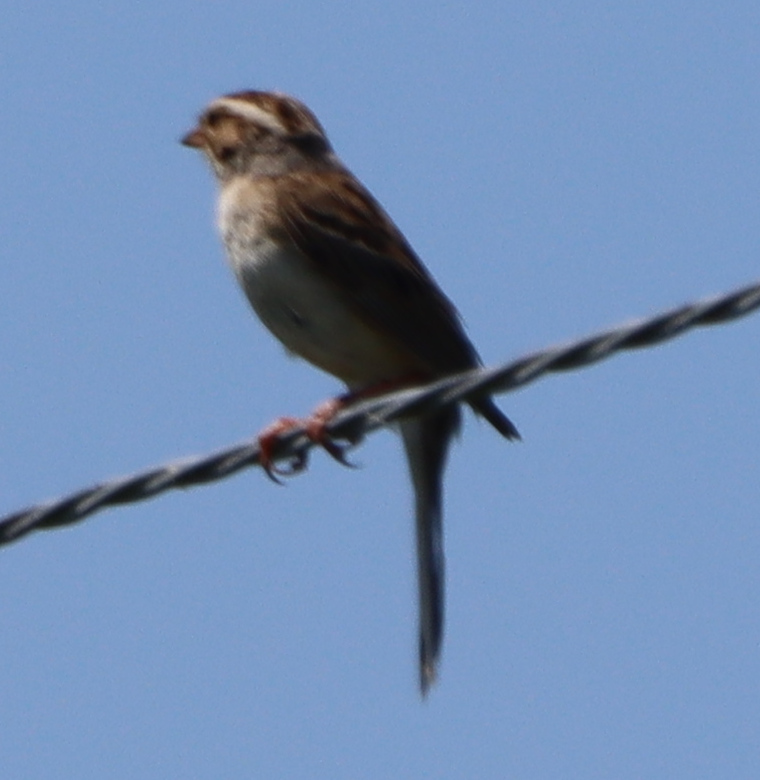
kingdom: Animalia
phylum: Chordata
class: Aves
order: Passeriformes
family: Passerellidae
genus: Spizella
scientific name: Spizella pallida
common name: Clay-colored sparrow
